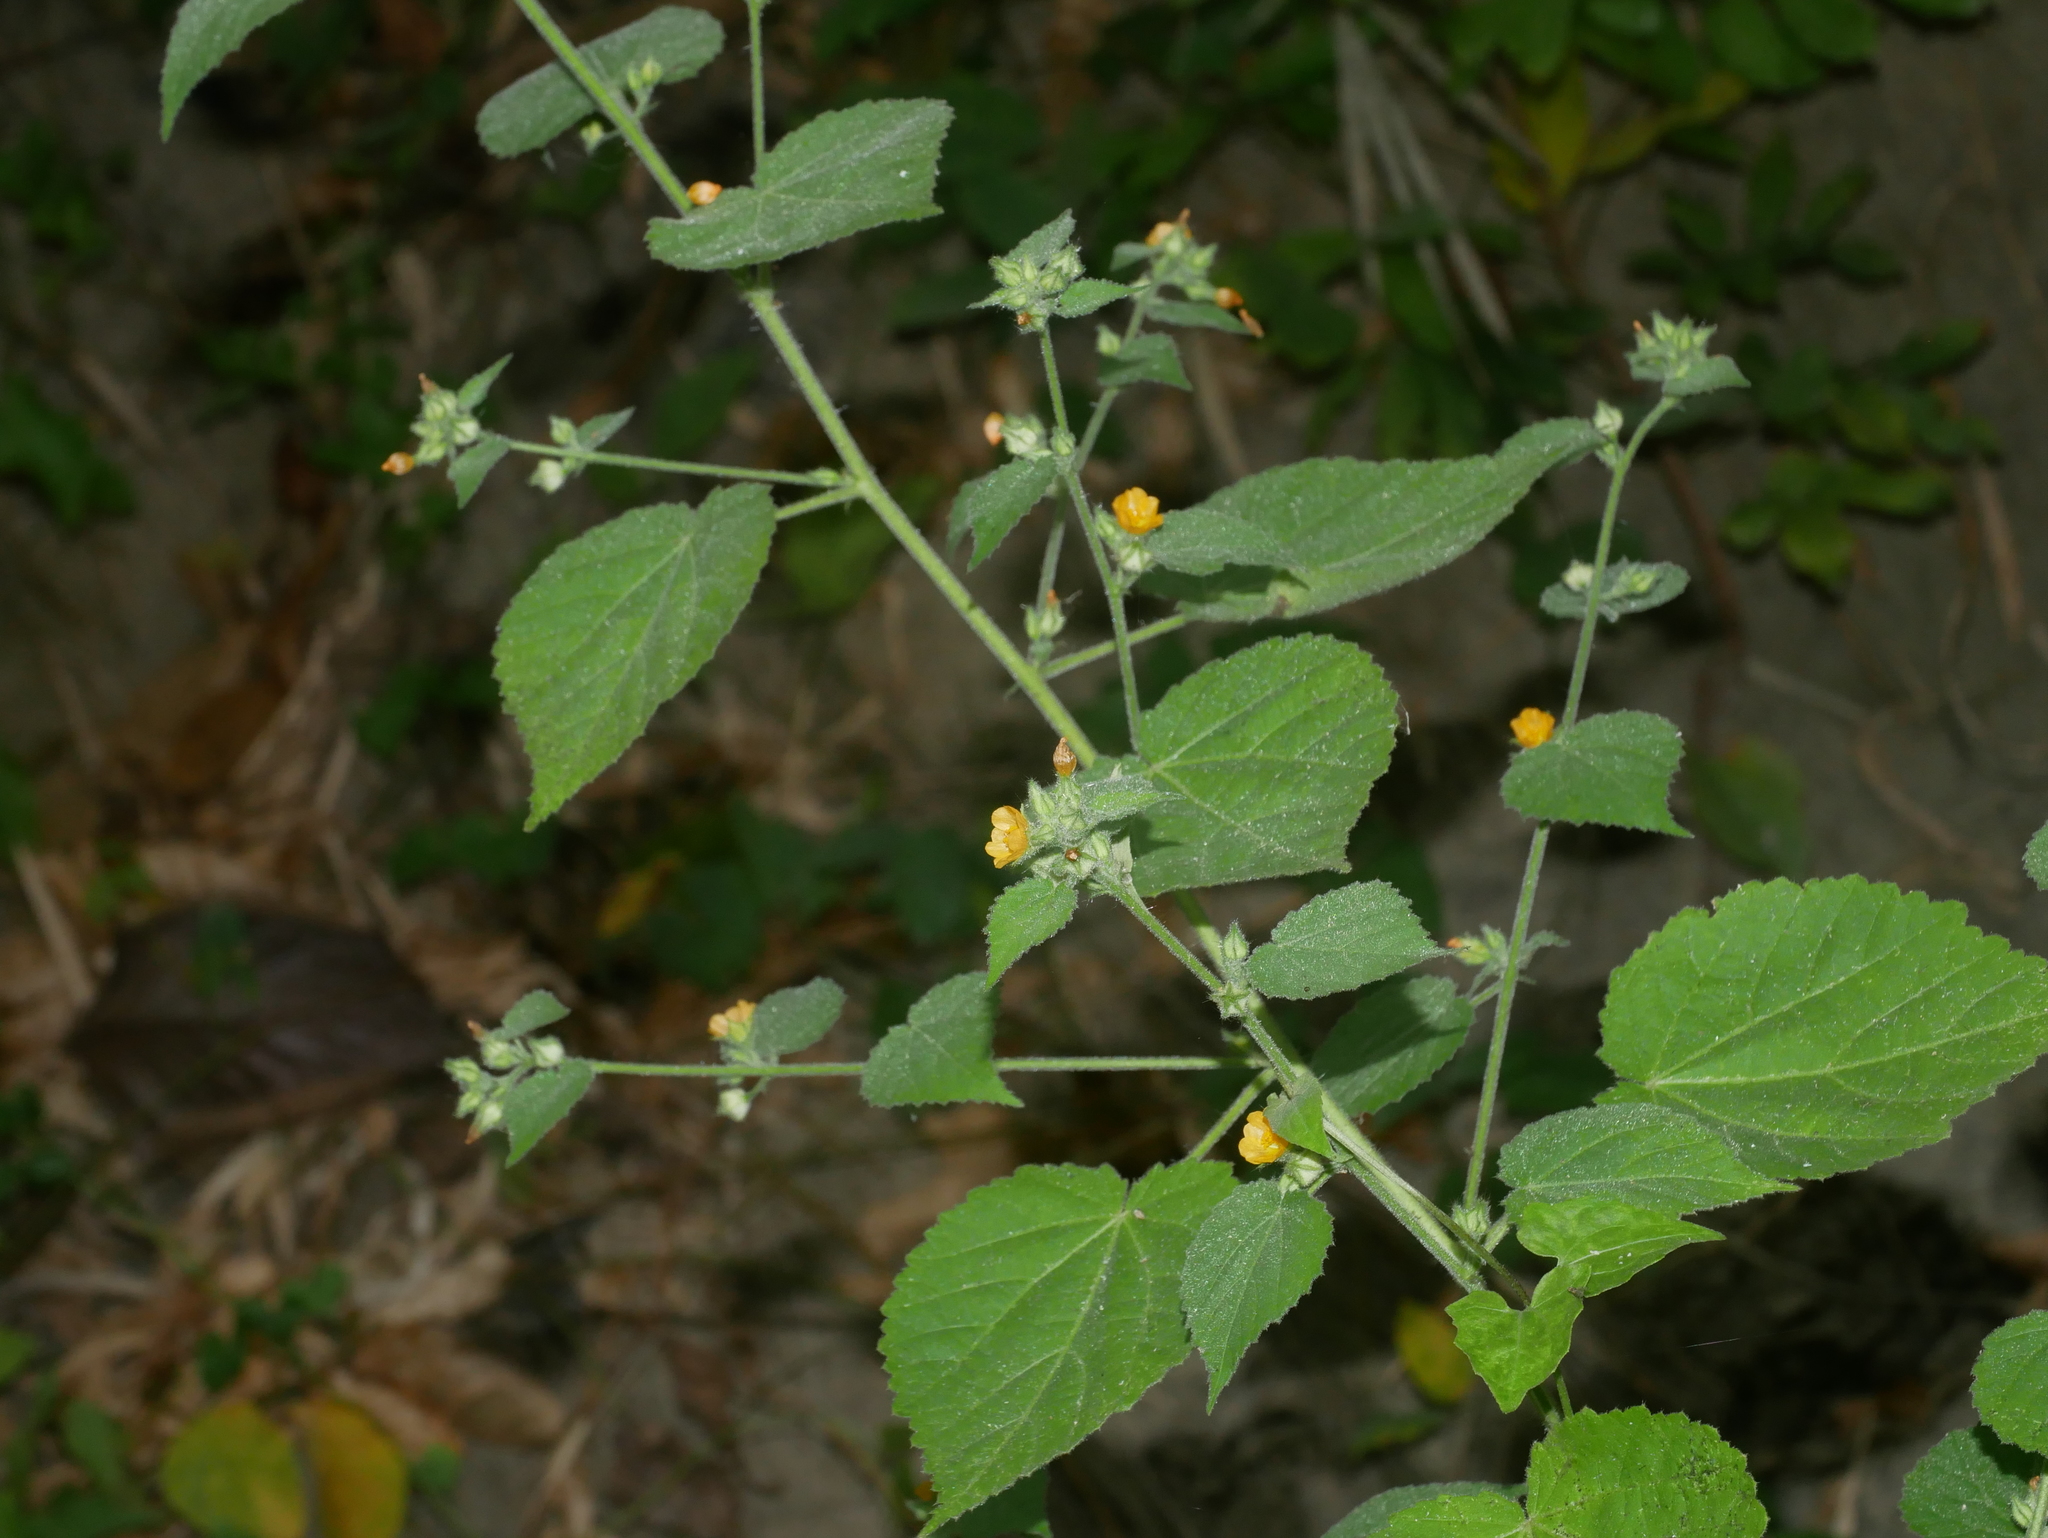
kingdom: Plantae
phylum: Tracheophyta
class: Magnoliopsida
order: Malvales
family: Malvaceae
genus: Sida
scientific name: Sida mysorensis
